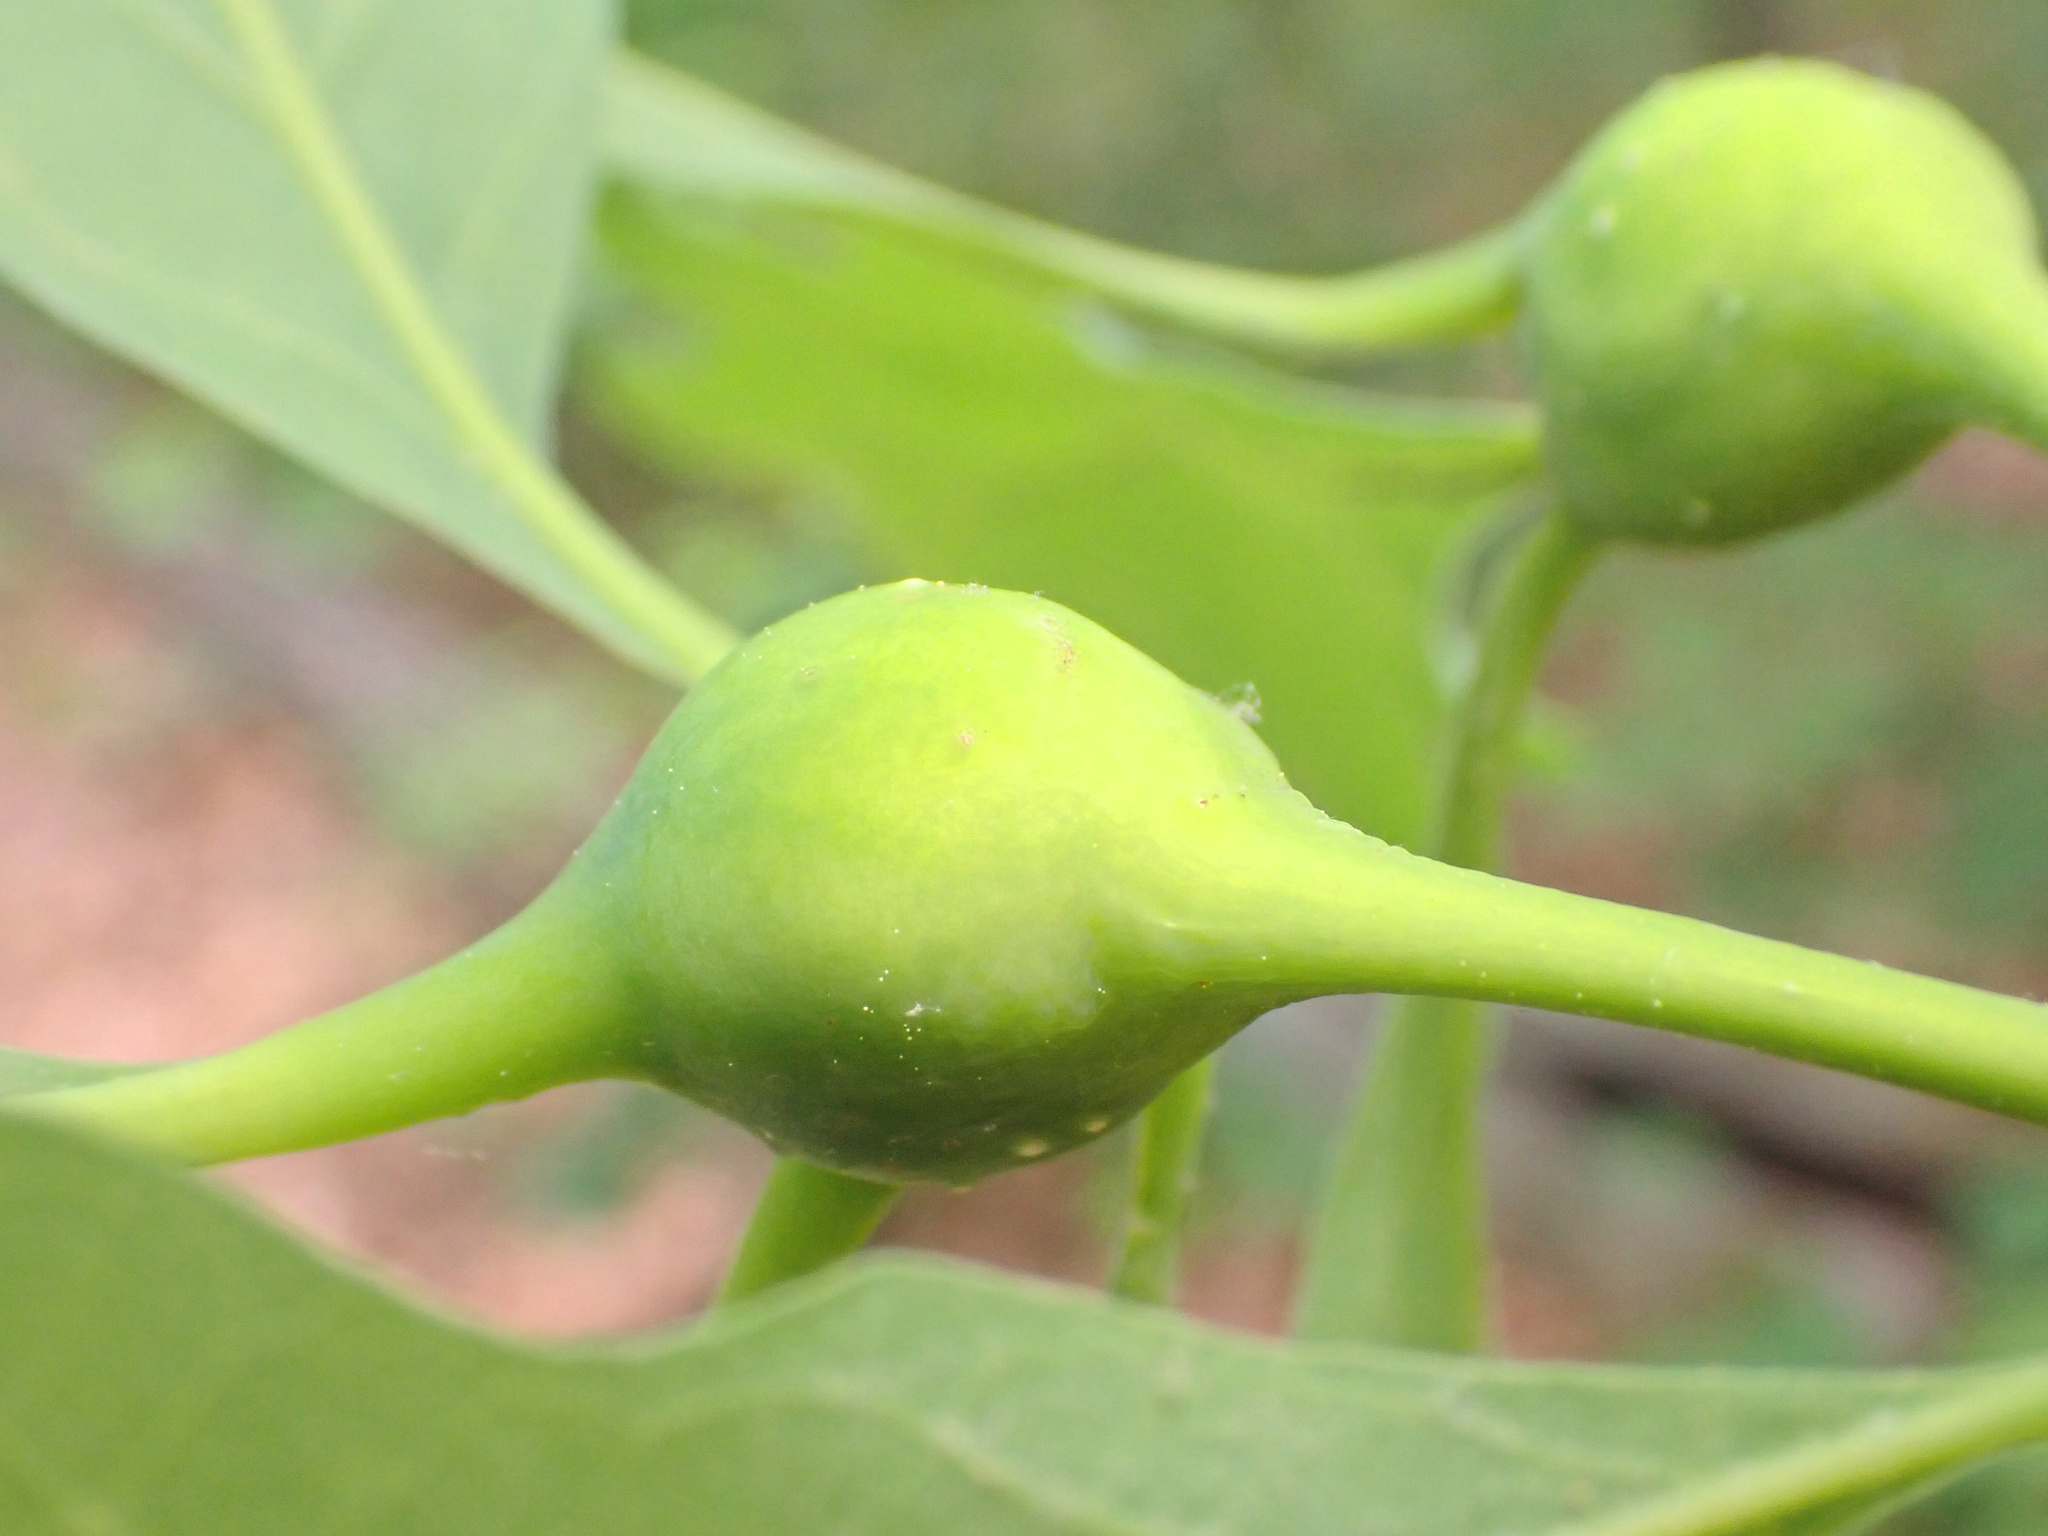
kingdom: Animalia
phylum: Arthropoda
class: Insecta
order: Hymenoptera
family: Cynipidae
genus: Callirhytis
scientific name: Callirhytis clavula
